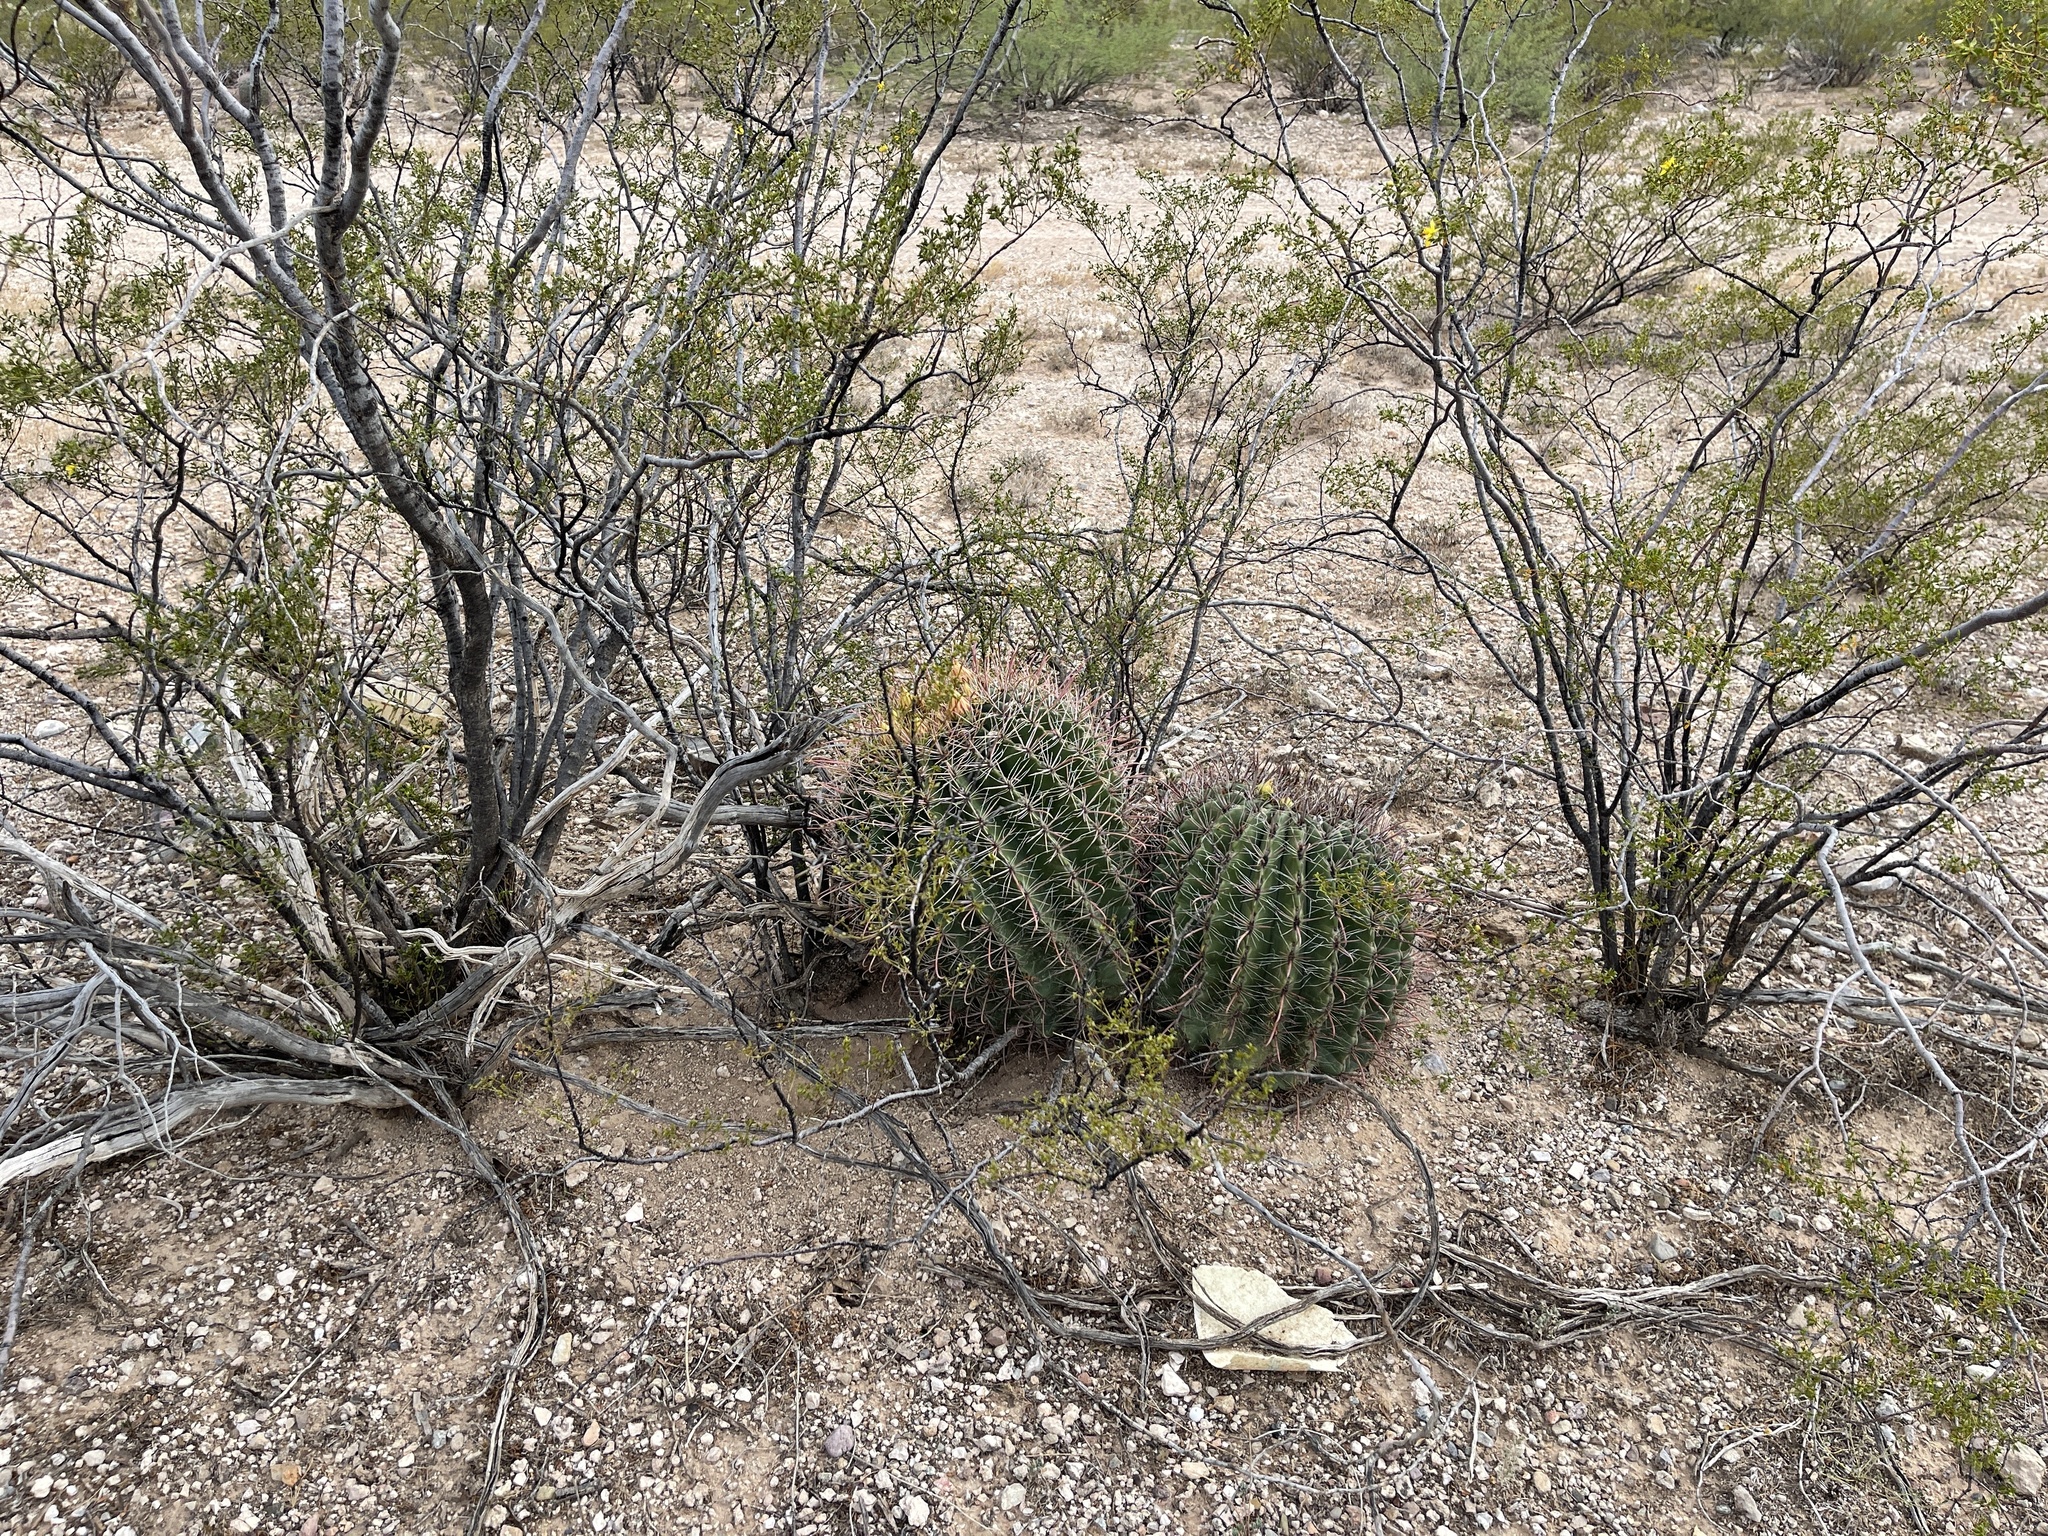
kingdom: Plantae
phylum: Tracheophyta
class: Magnoliopsida
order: Caryophyllales
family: Cactaceae
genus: Ferocactus
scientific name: Ferocactus wislizeni
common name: Candy barrel cactus
